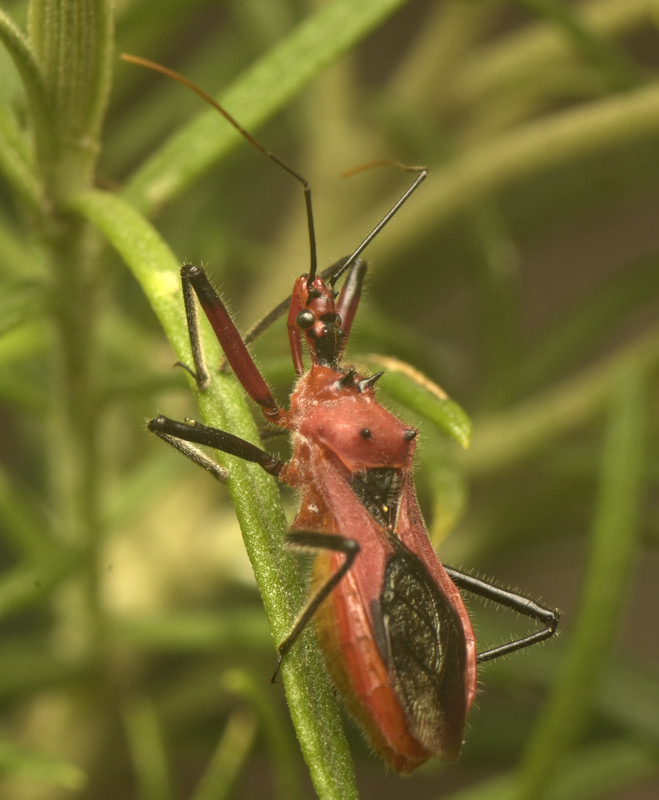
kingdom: Animalia
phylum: Arthropoda
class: Insecta
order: Hemiptera
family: Reduviidae
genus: Gminatus
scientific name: Gminatus australis
